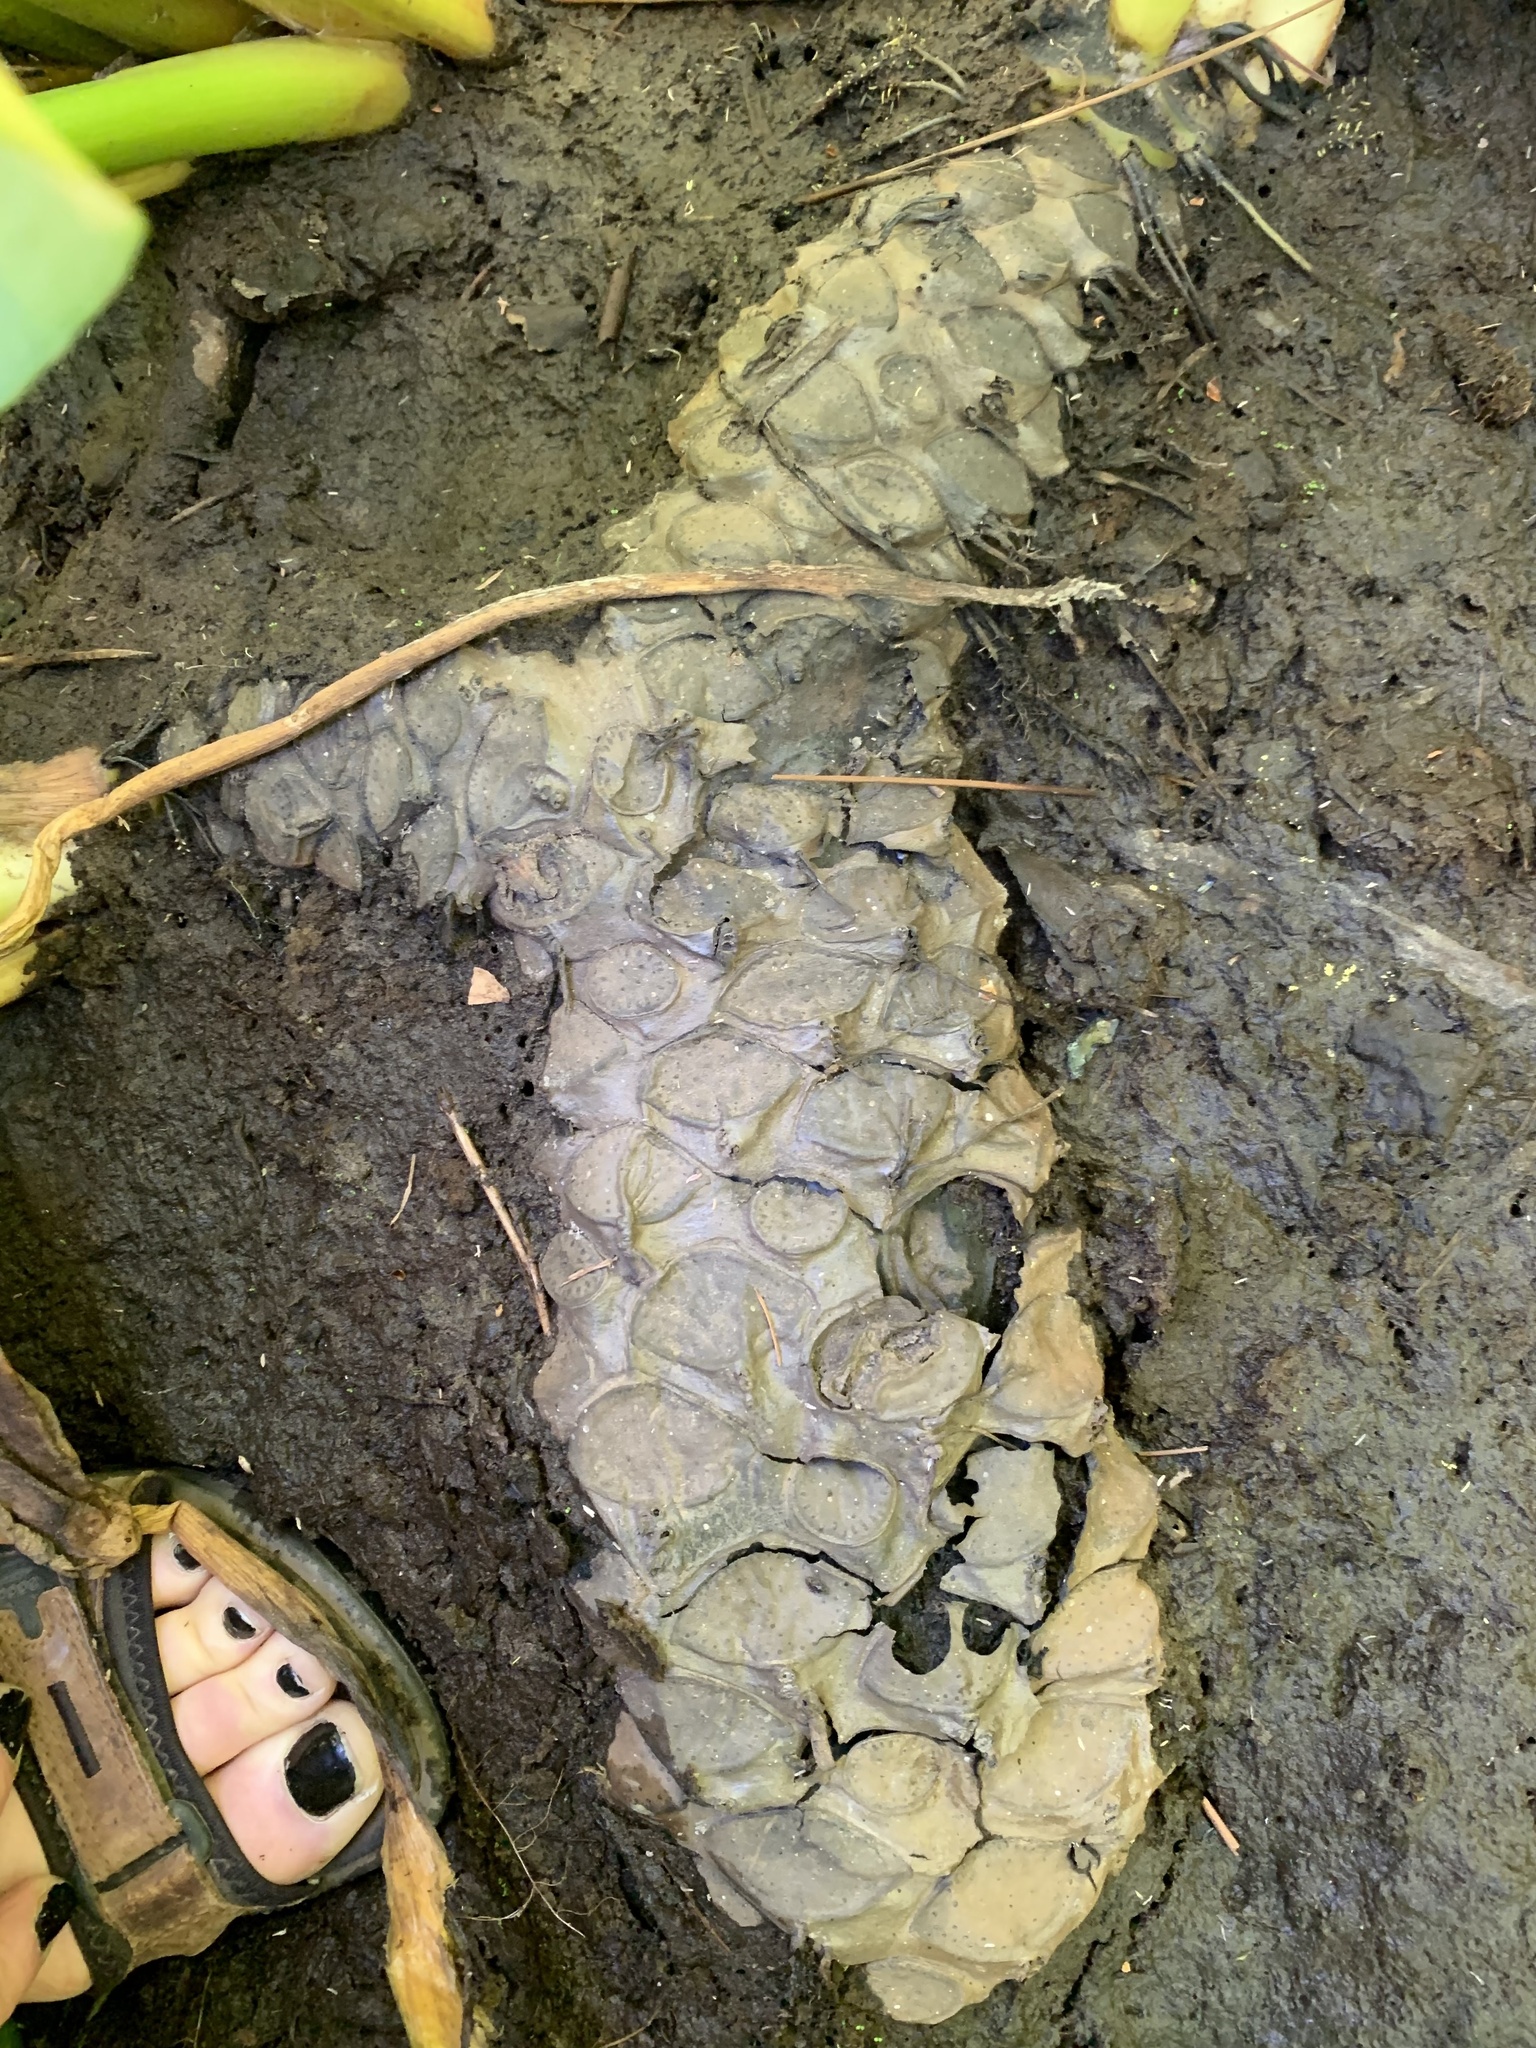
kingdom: Plantae
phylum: Tracheophyta
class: Magnoliopsida
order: Nymphaeales
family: Nymphaeaceae
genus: Nuphar
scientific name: Nuphar polysepala
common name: Rocky mountain cow-lily
